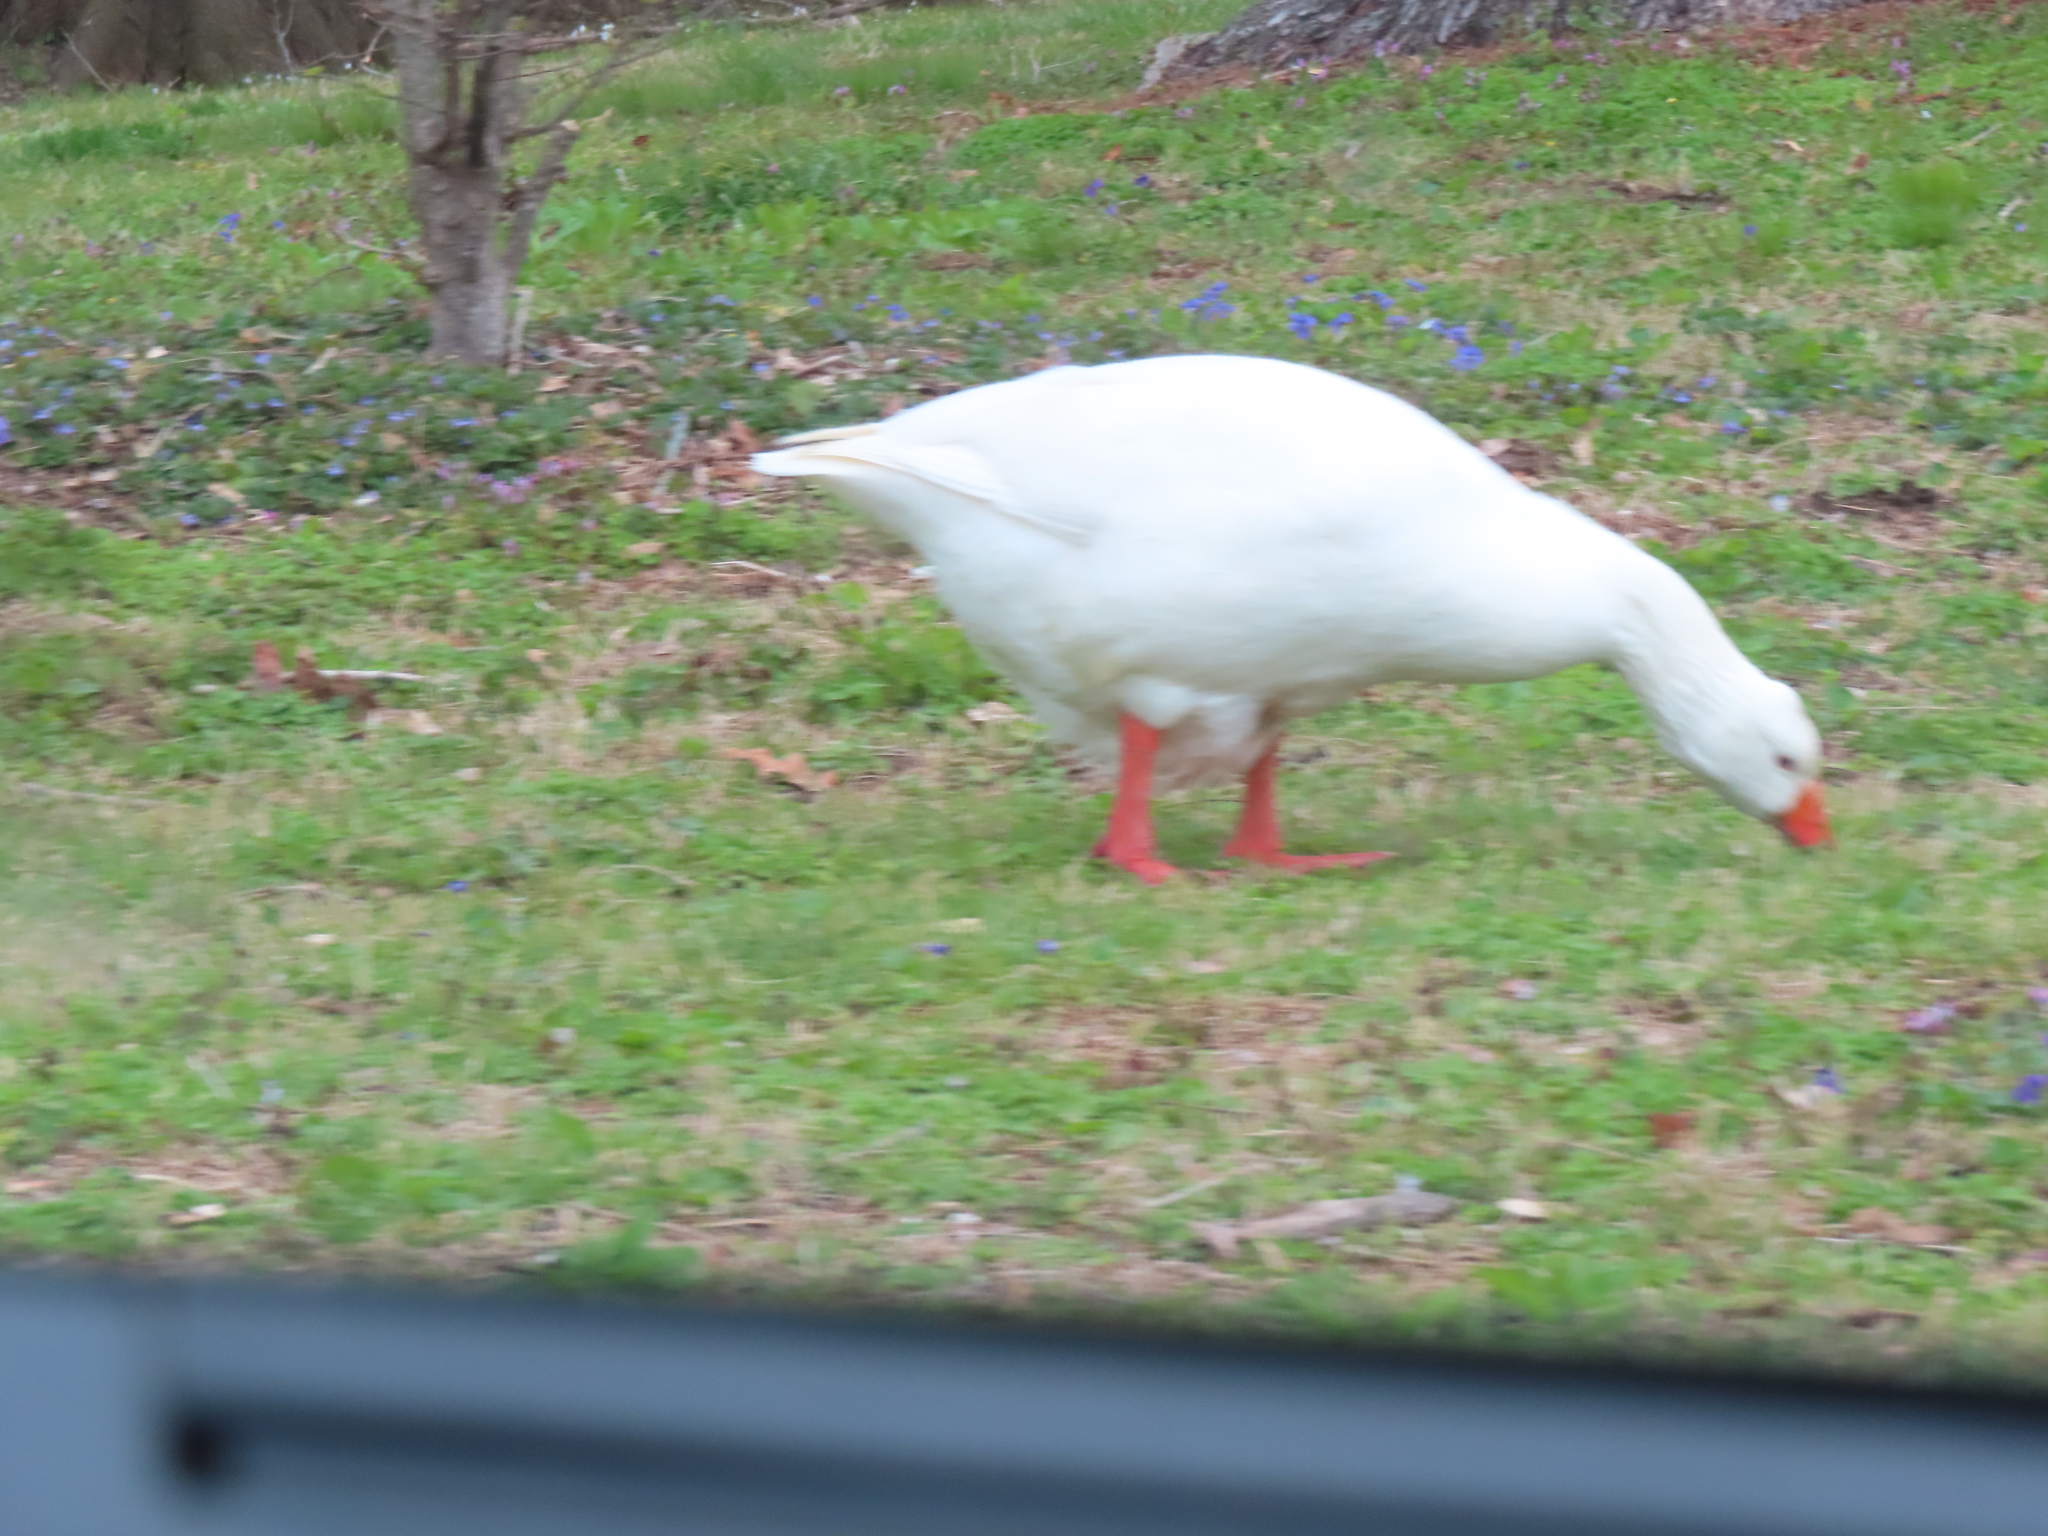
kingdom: Animalia
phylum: Chordata
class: Aves
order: Anseriformes
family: Anatidae
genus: Anser
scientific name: Anser anser
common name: Greylag goose
